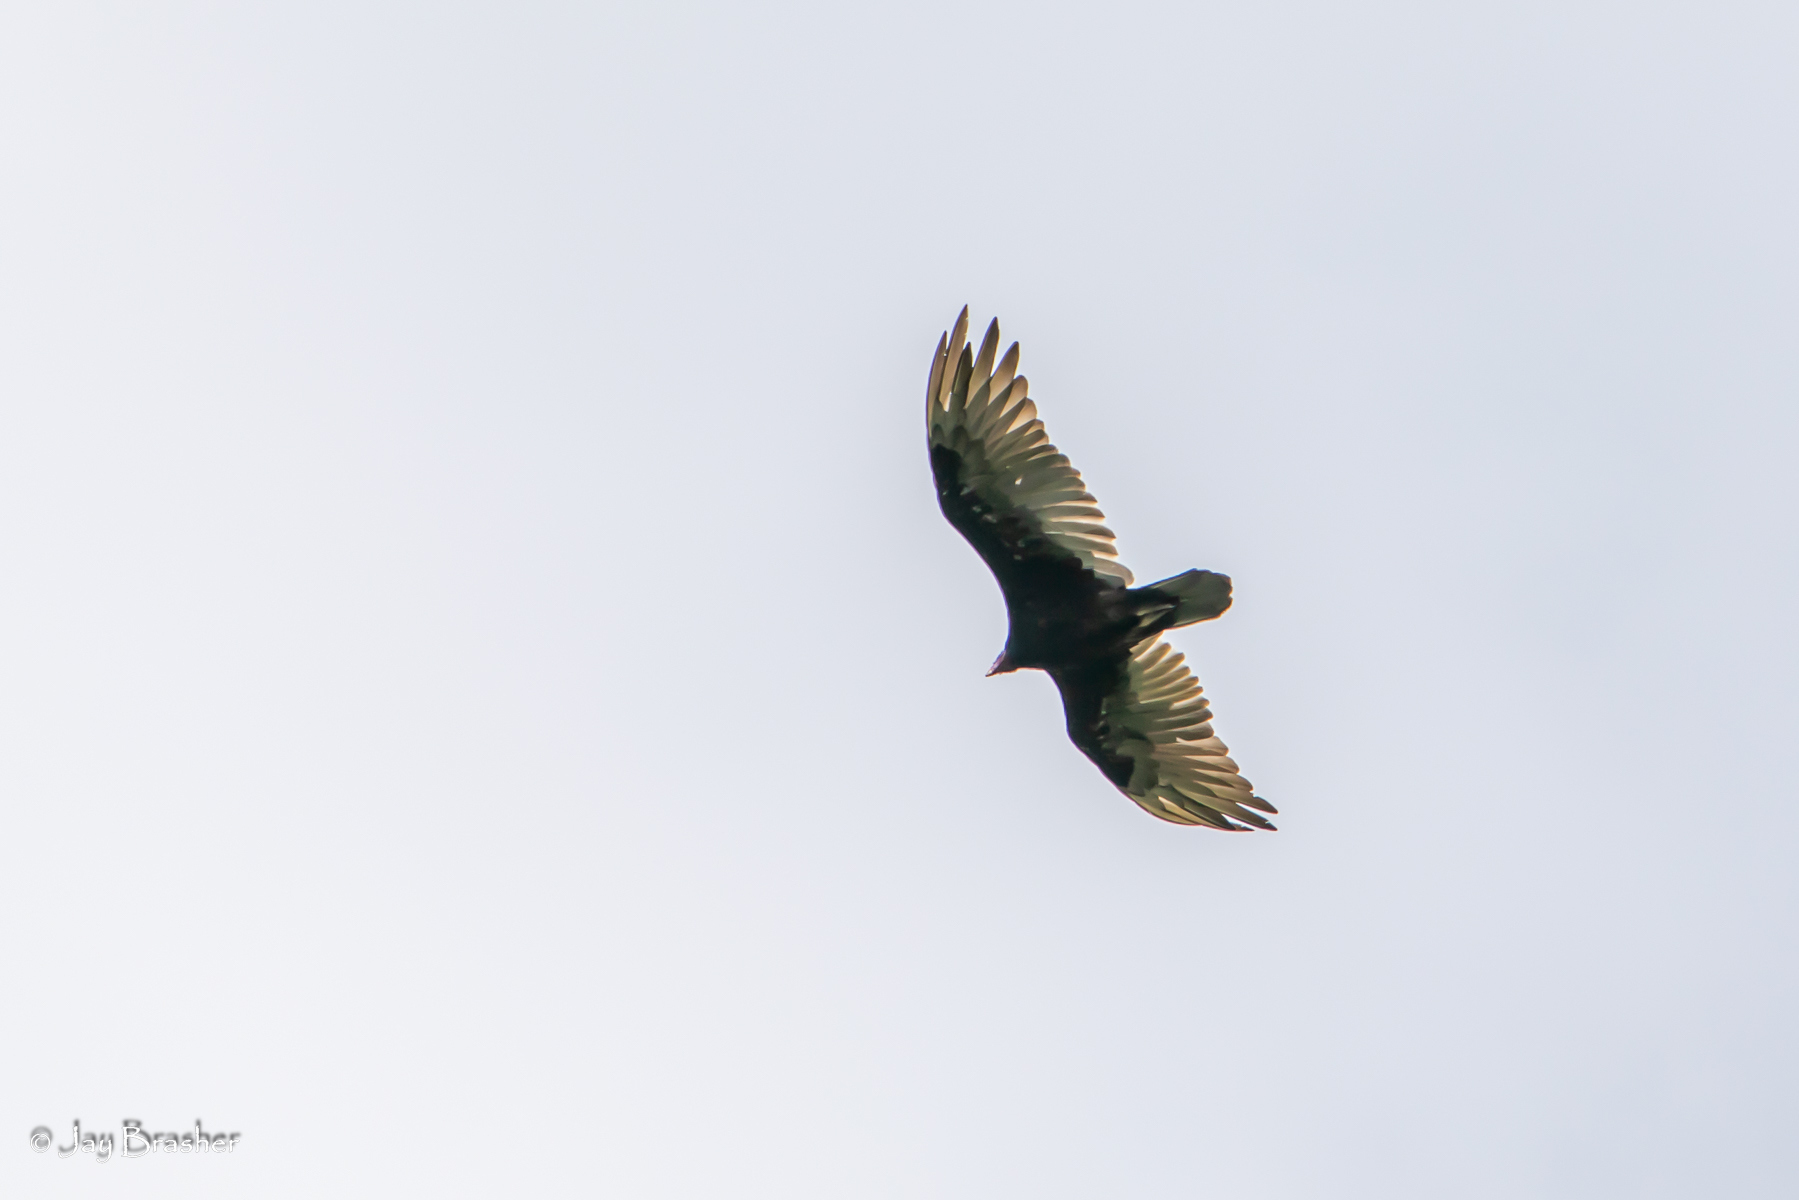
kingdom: Animalia
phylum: Chordata
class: Aves
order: Accipitriformes
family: Cathartidae
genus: Cathartes
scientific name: Cathartes aura
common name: Turkey vulture
